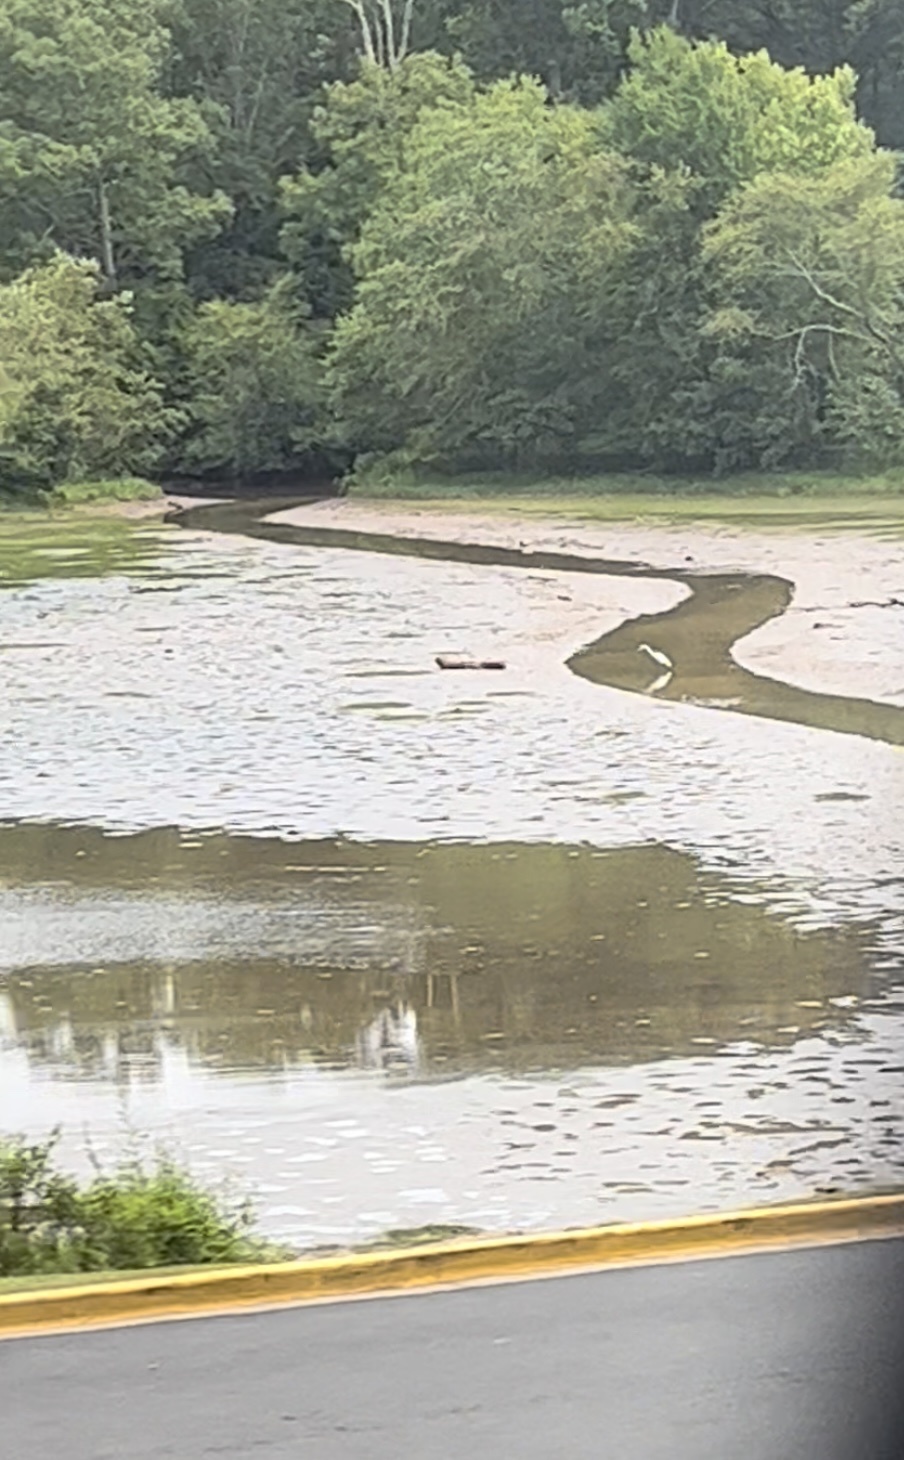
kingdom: Animalia
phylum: Chordata
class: Aves
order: Pelecaniformes
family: Ardeidae
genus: Ardea
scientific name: Ardea alba
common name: Great egret
